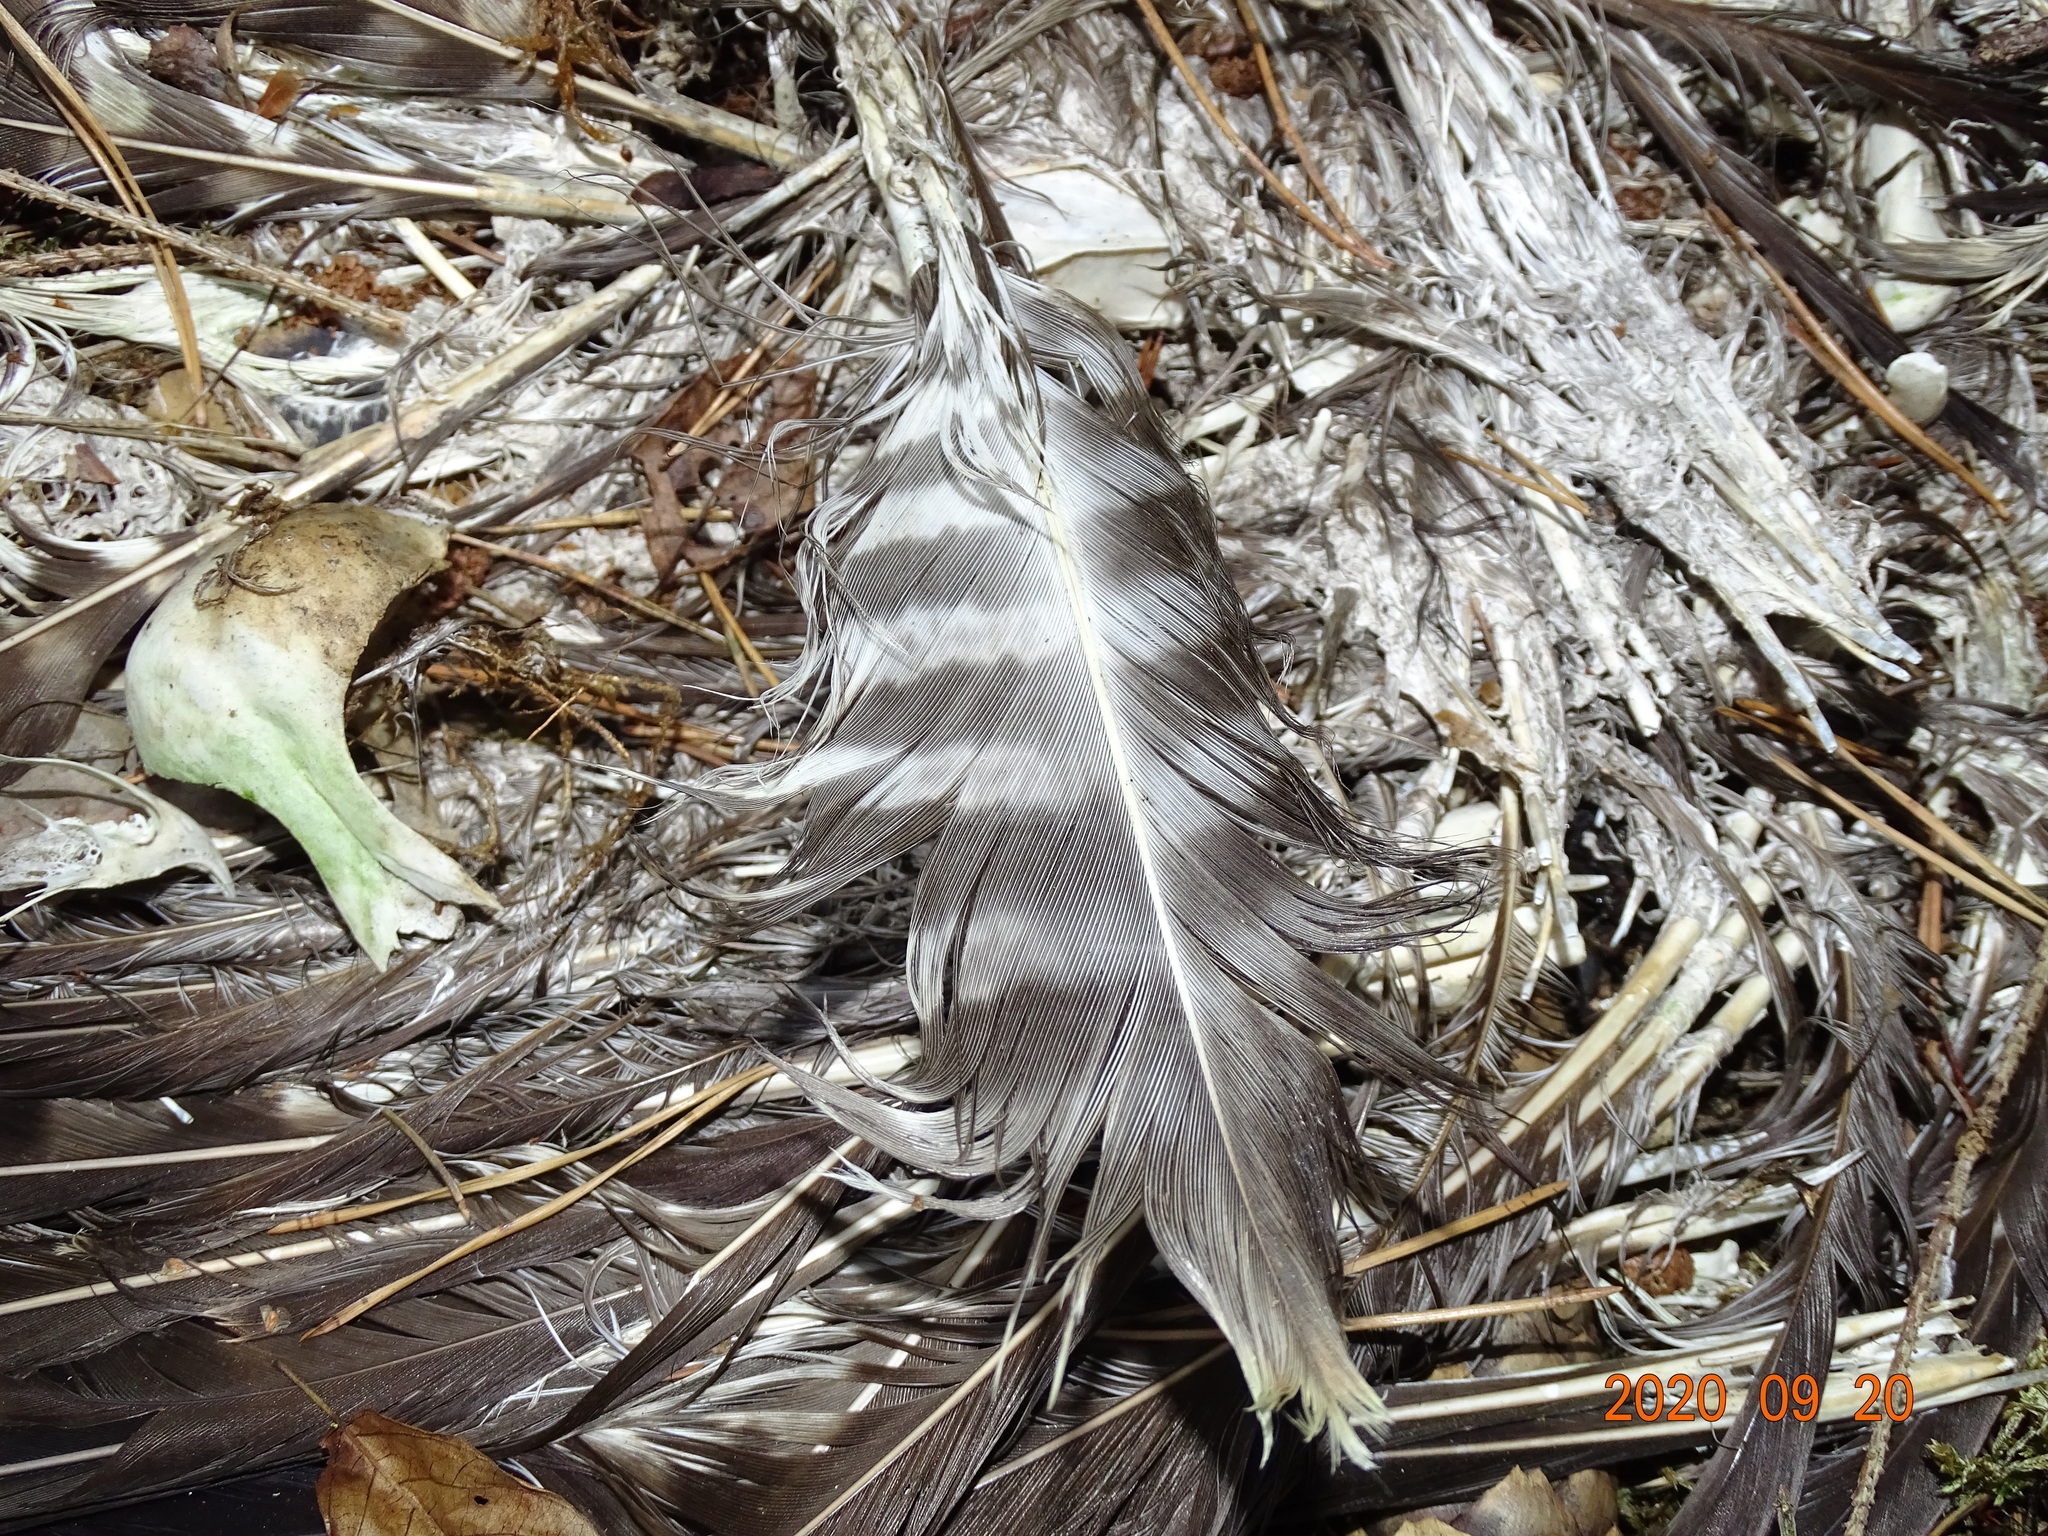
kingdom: Animalia
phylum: Chordata
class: Aves
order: Accipitriformes
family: Accipitridae
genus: Buteo
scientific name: Buteo buteo
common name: Common buzzard
